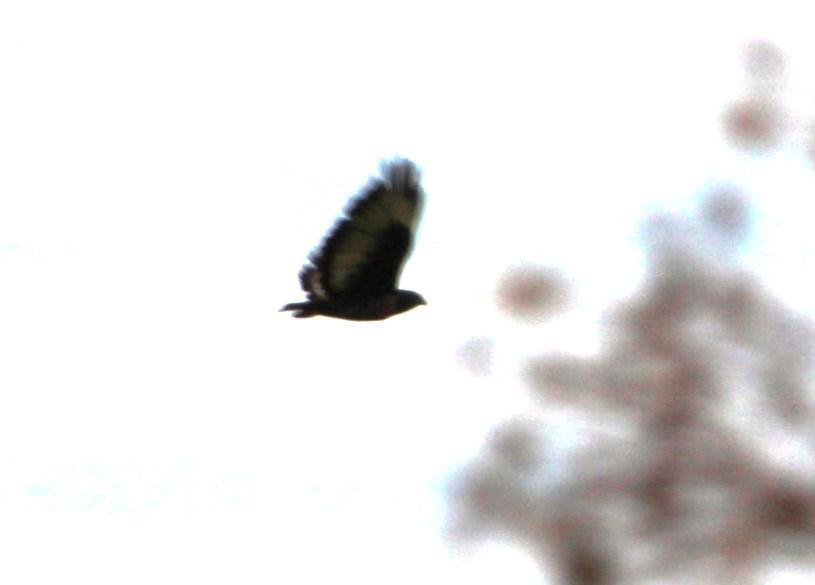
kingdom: Animalia
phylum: Chordata
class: Aves
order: Accipitriformes
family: Accipitridae
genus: Buteo
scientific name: Buteo rufofuscus
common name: Jackal buzzard
